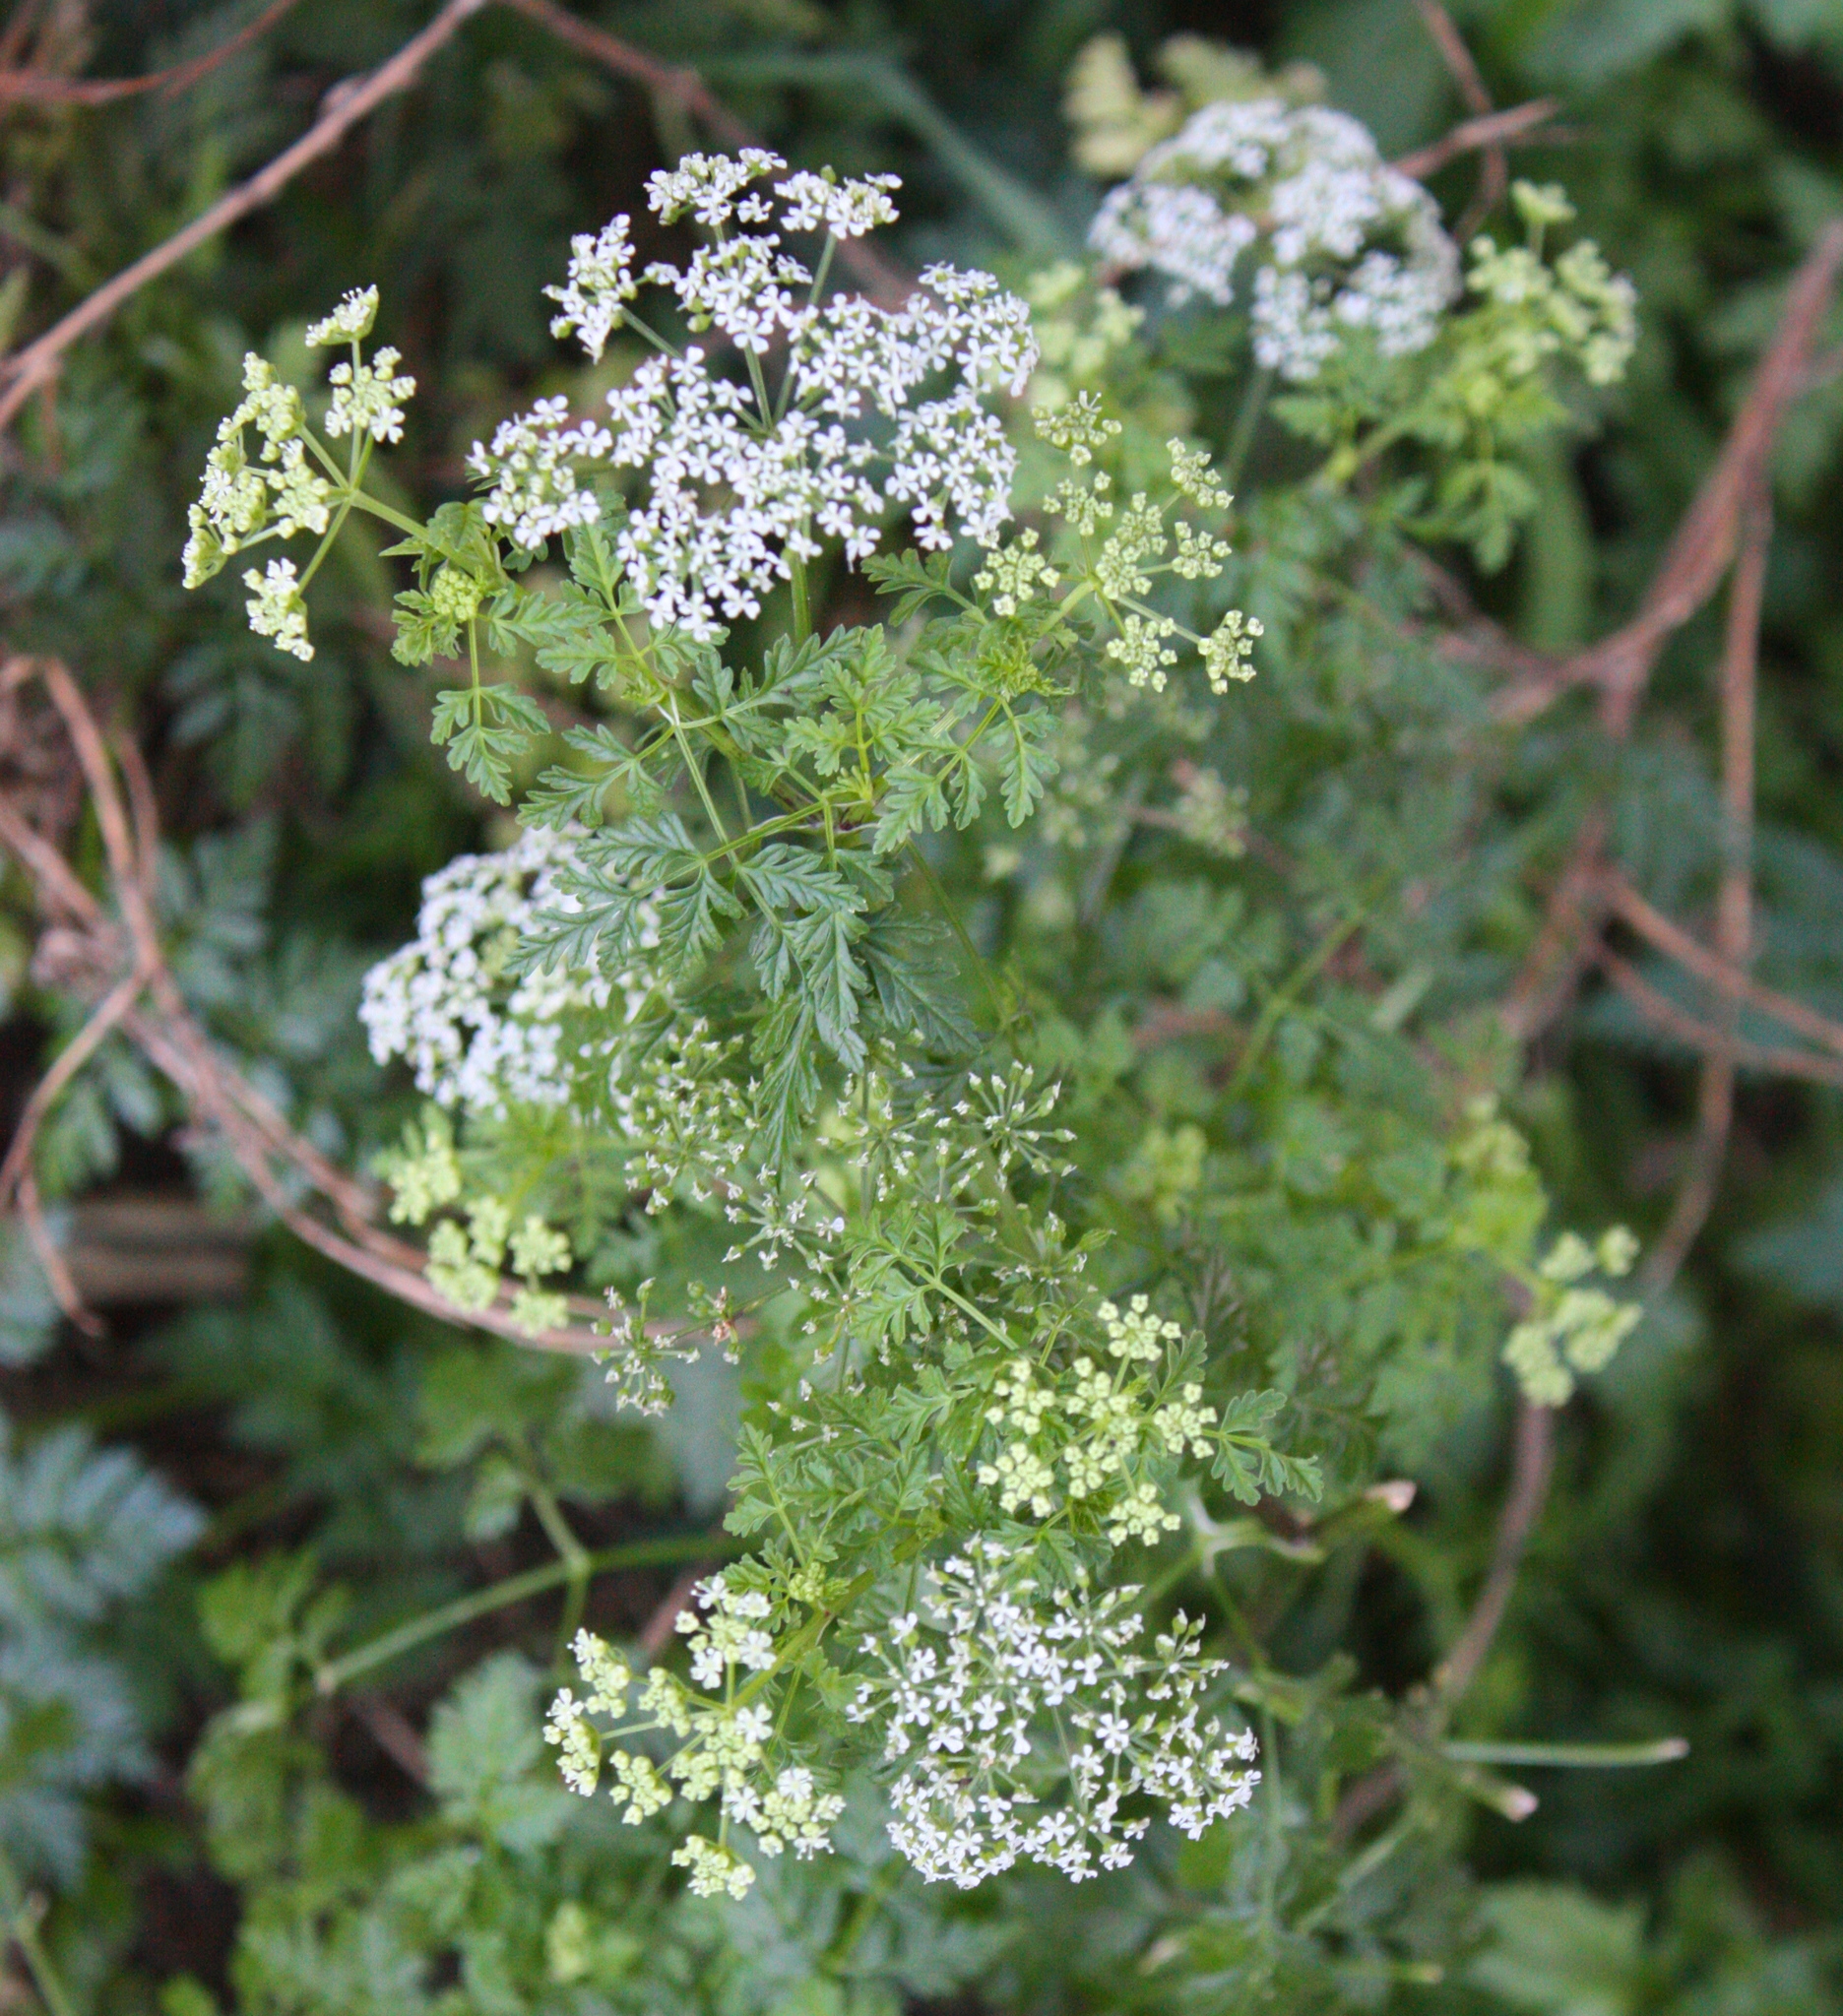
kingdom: Plantae
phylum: Tracheophyta
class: Magnoliopsida
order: Apiales
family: Apiaceae
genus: Conium
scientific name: Conium maculatum
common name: Hemlock
